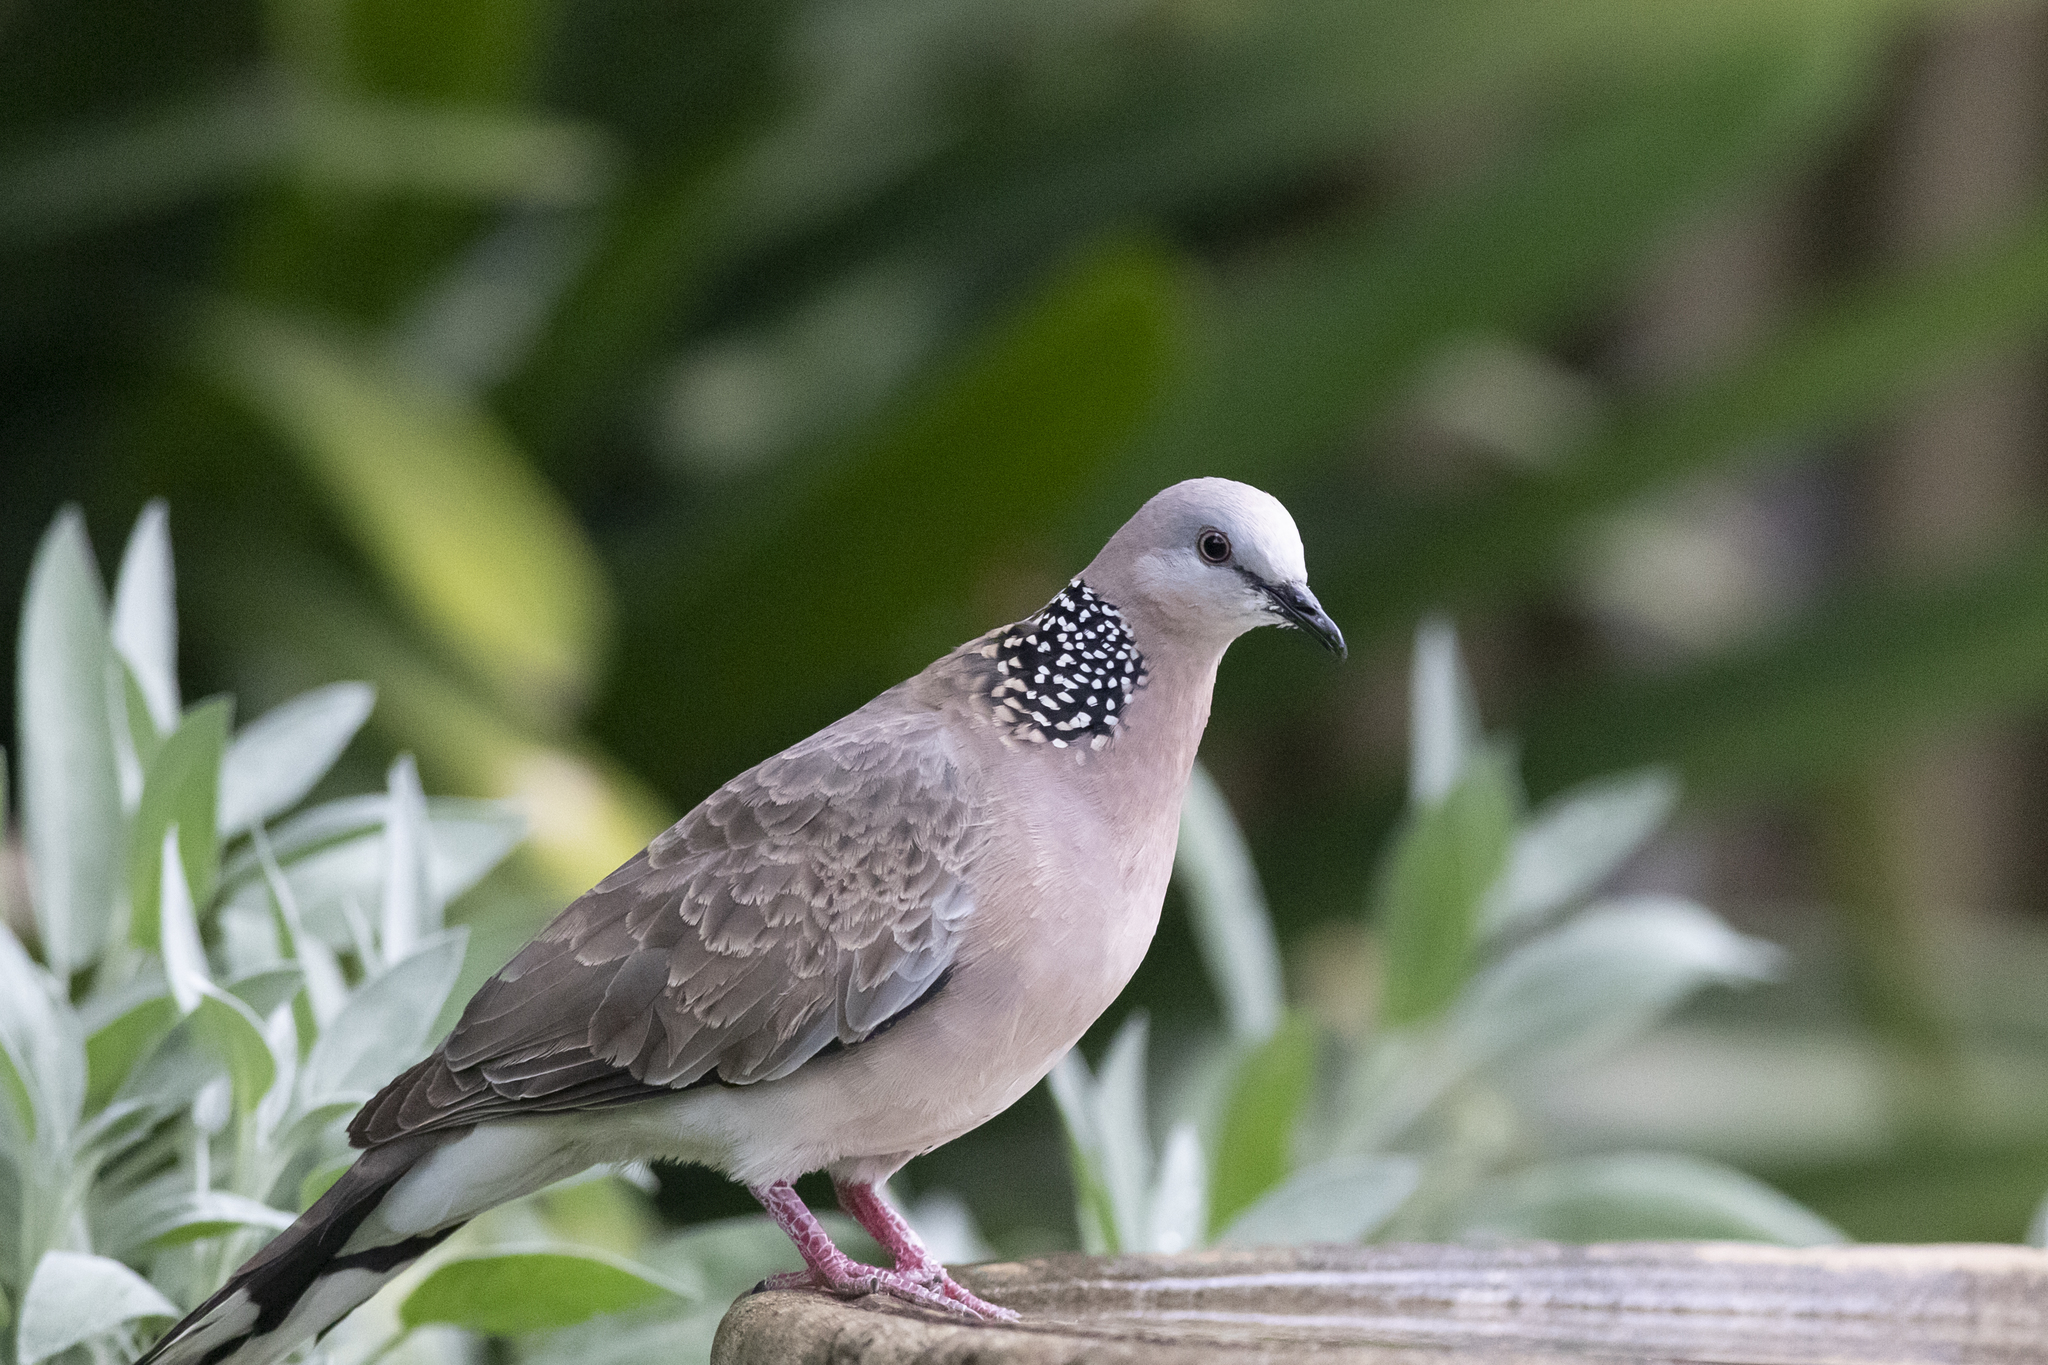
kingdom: Animalia
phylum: Chordata
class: Aves
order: Columbiformes
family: Columbidae
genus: Spilopelia
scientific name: Spilopelia chinensis
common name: Spotted dove
